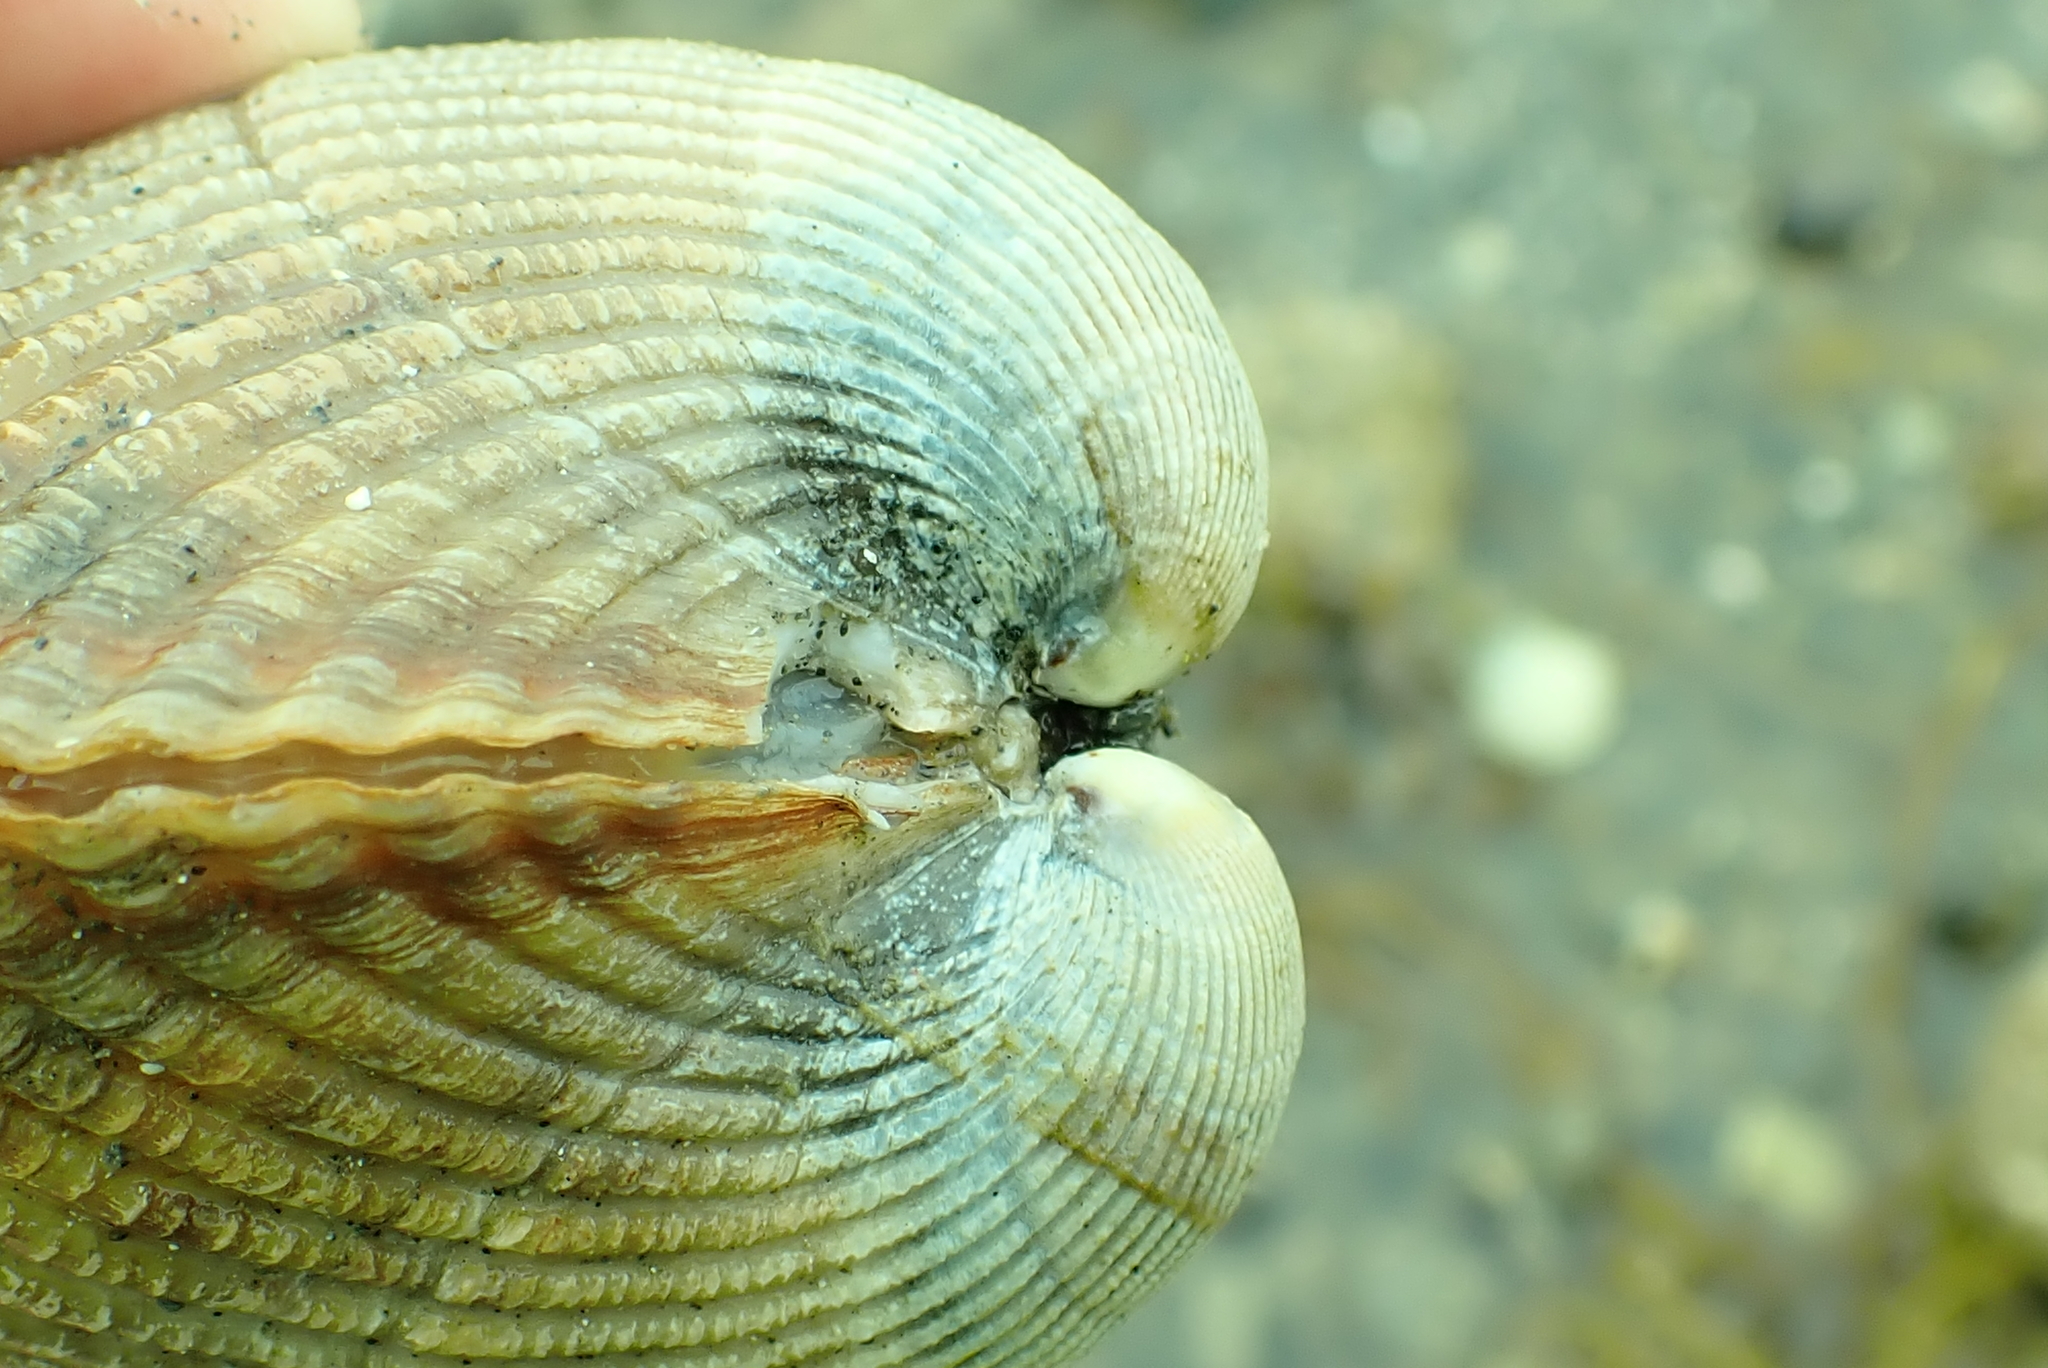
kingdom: Animalia
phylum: Mollusca
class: Bivalvia
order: Cardiida
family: Cardiidae
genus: Clinocardium
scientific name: Clinocardium nuttallii
